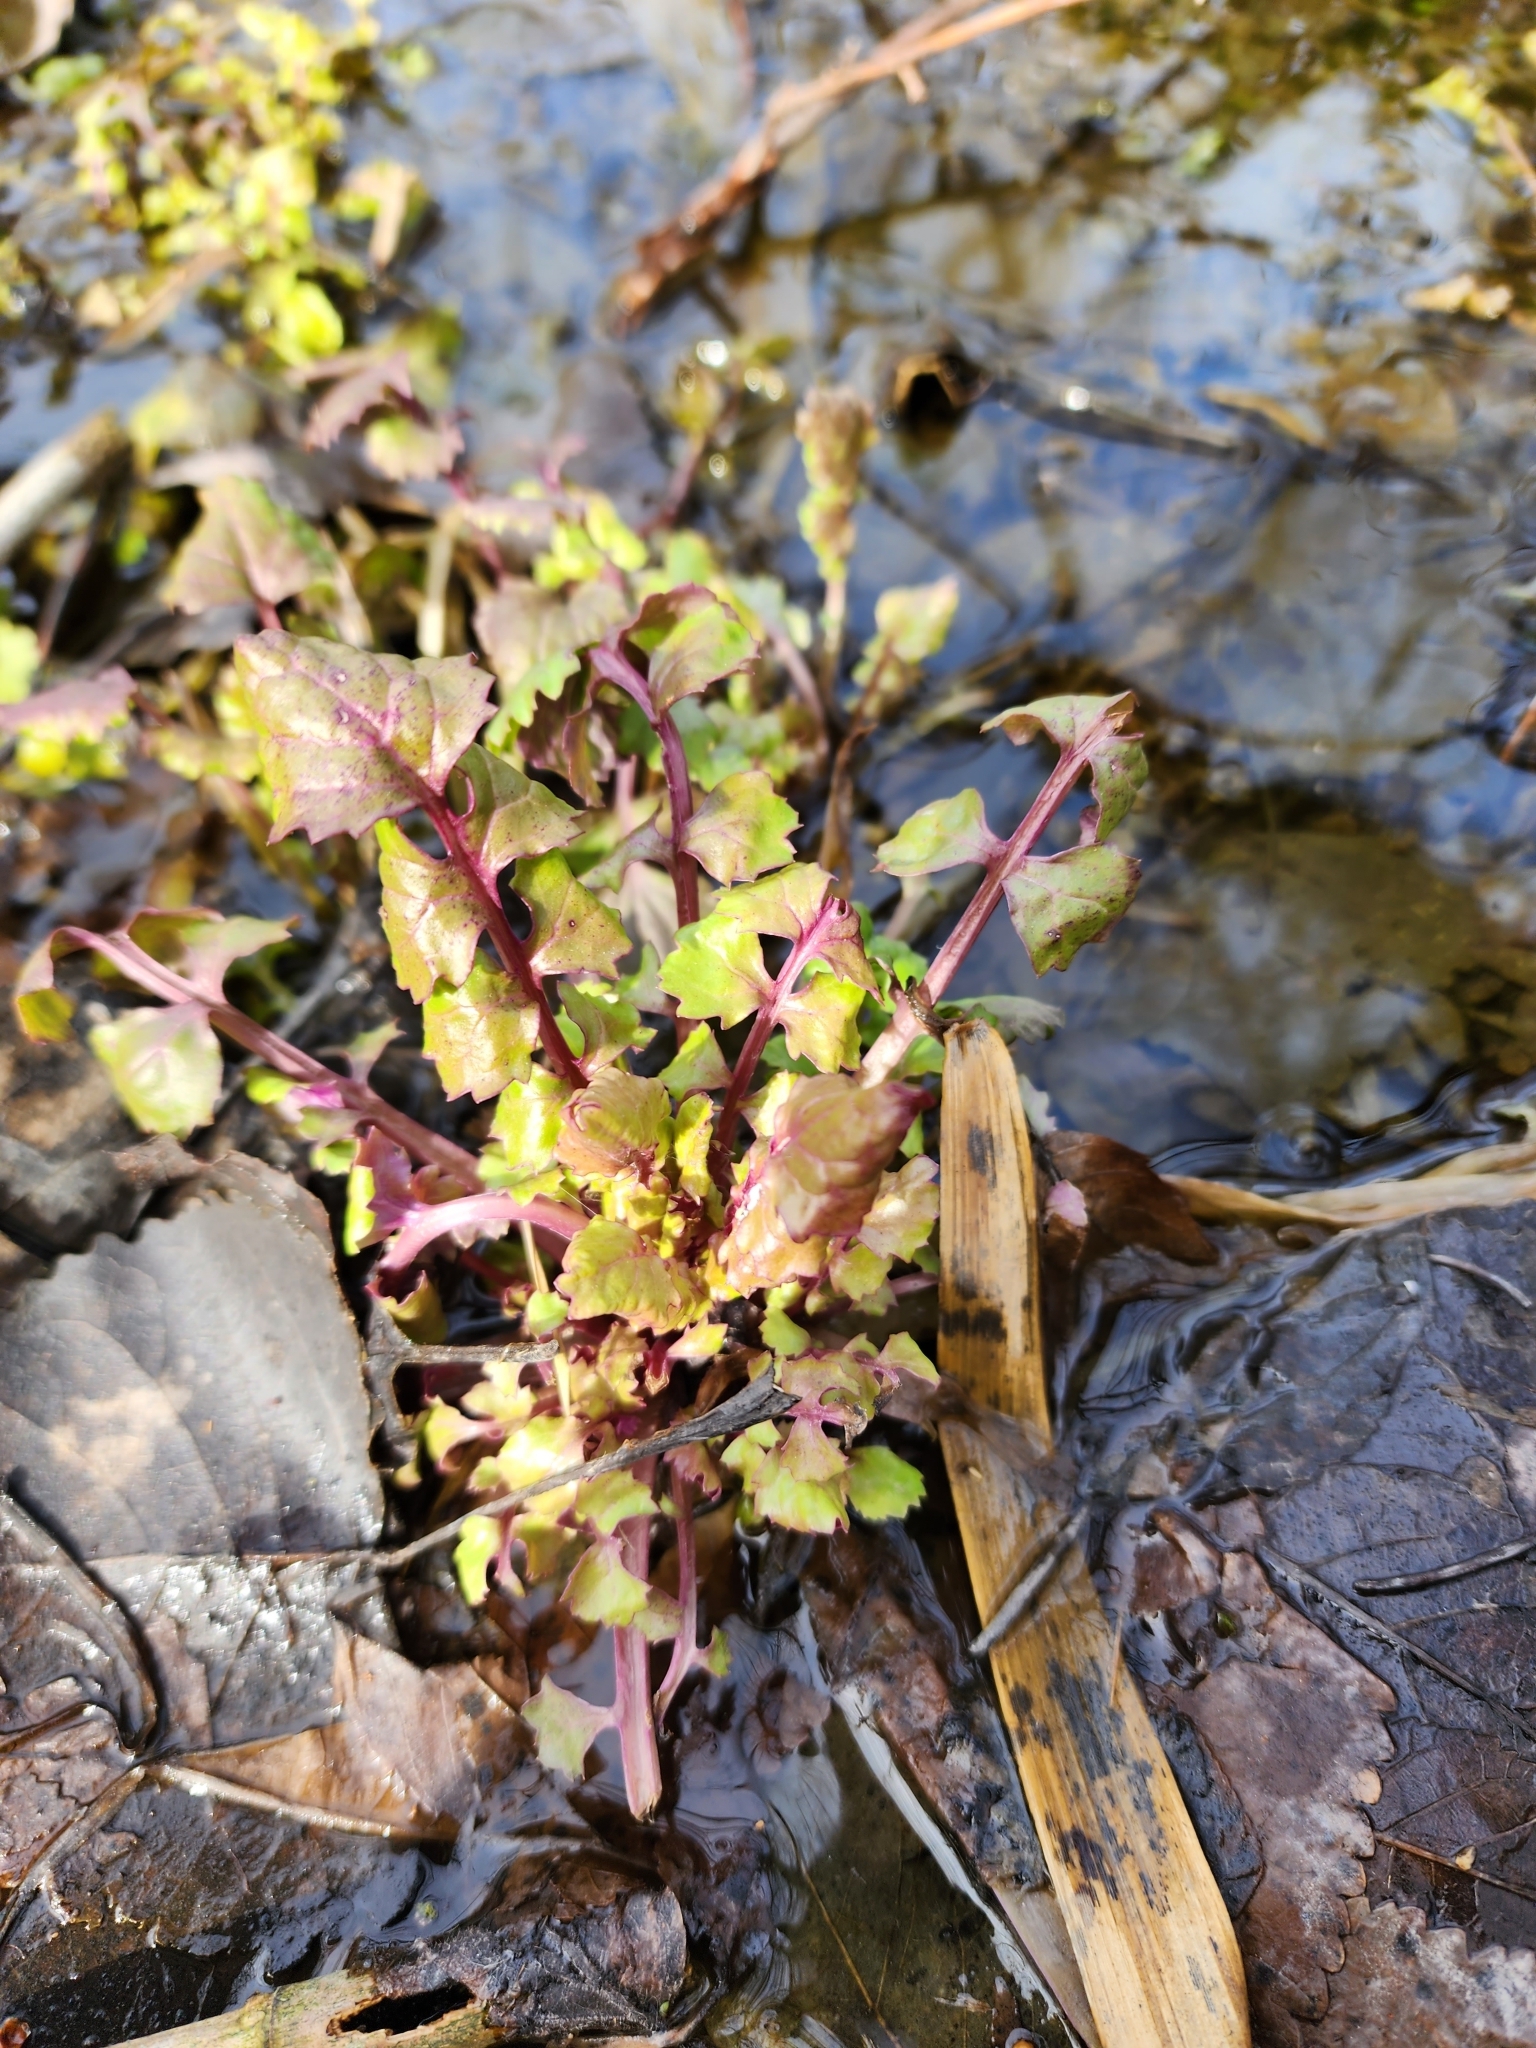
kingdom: Plantae
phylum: Tracheophyta
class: Magnoliopsida
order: Asterales
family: Asteraceae
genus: Packera
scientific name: Packera glabella
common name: Butterweed
